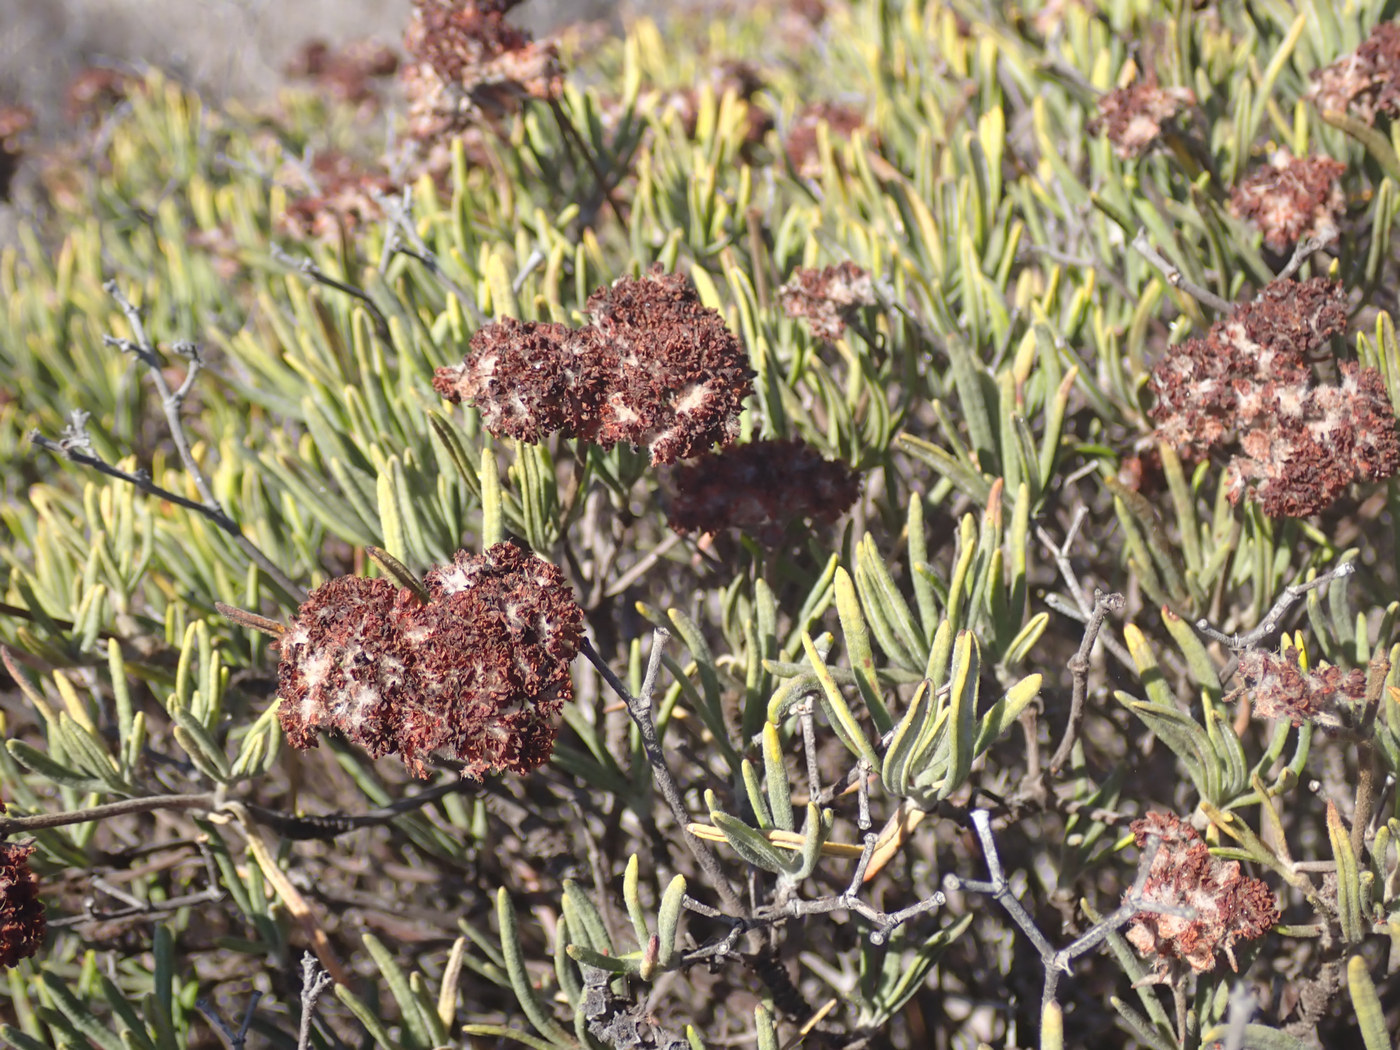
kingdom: Plantae
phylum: Tracheophyta
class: Magnoliopsida
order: Caryophyllales
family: Polygonaceae
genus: Eriogonum
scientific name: Eriogonum arborescens
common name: Island buckwheat
